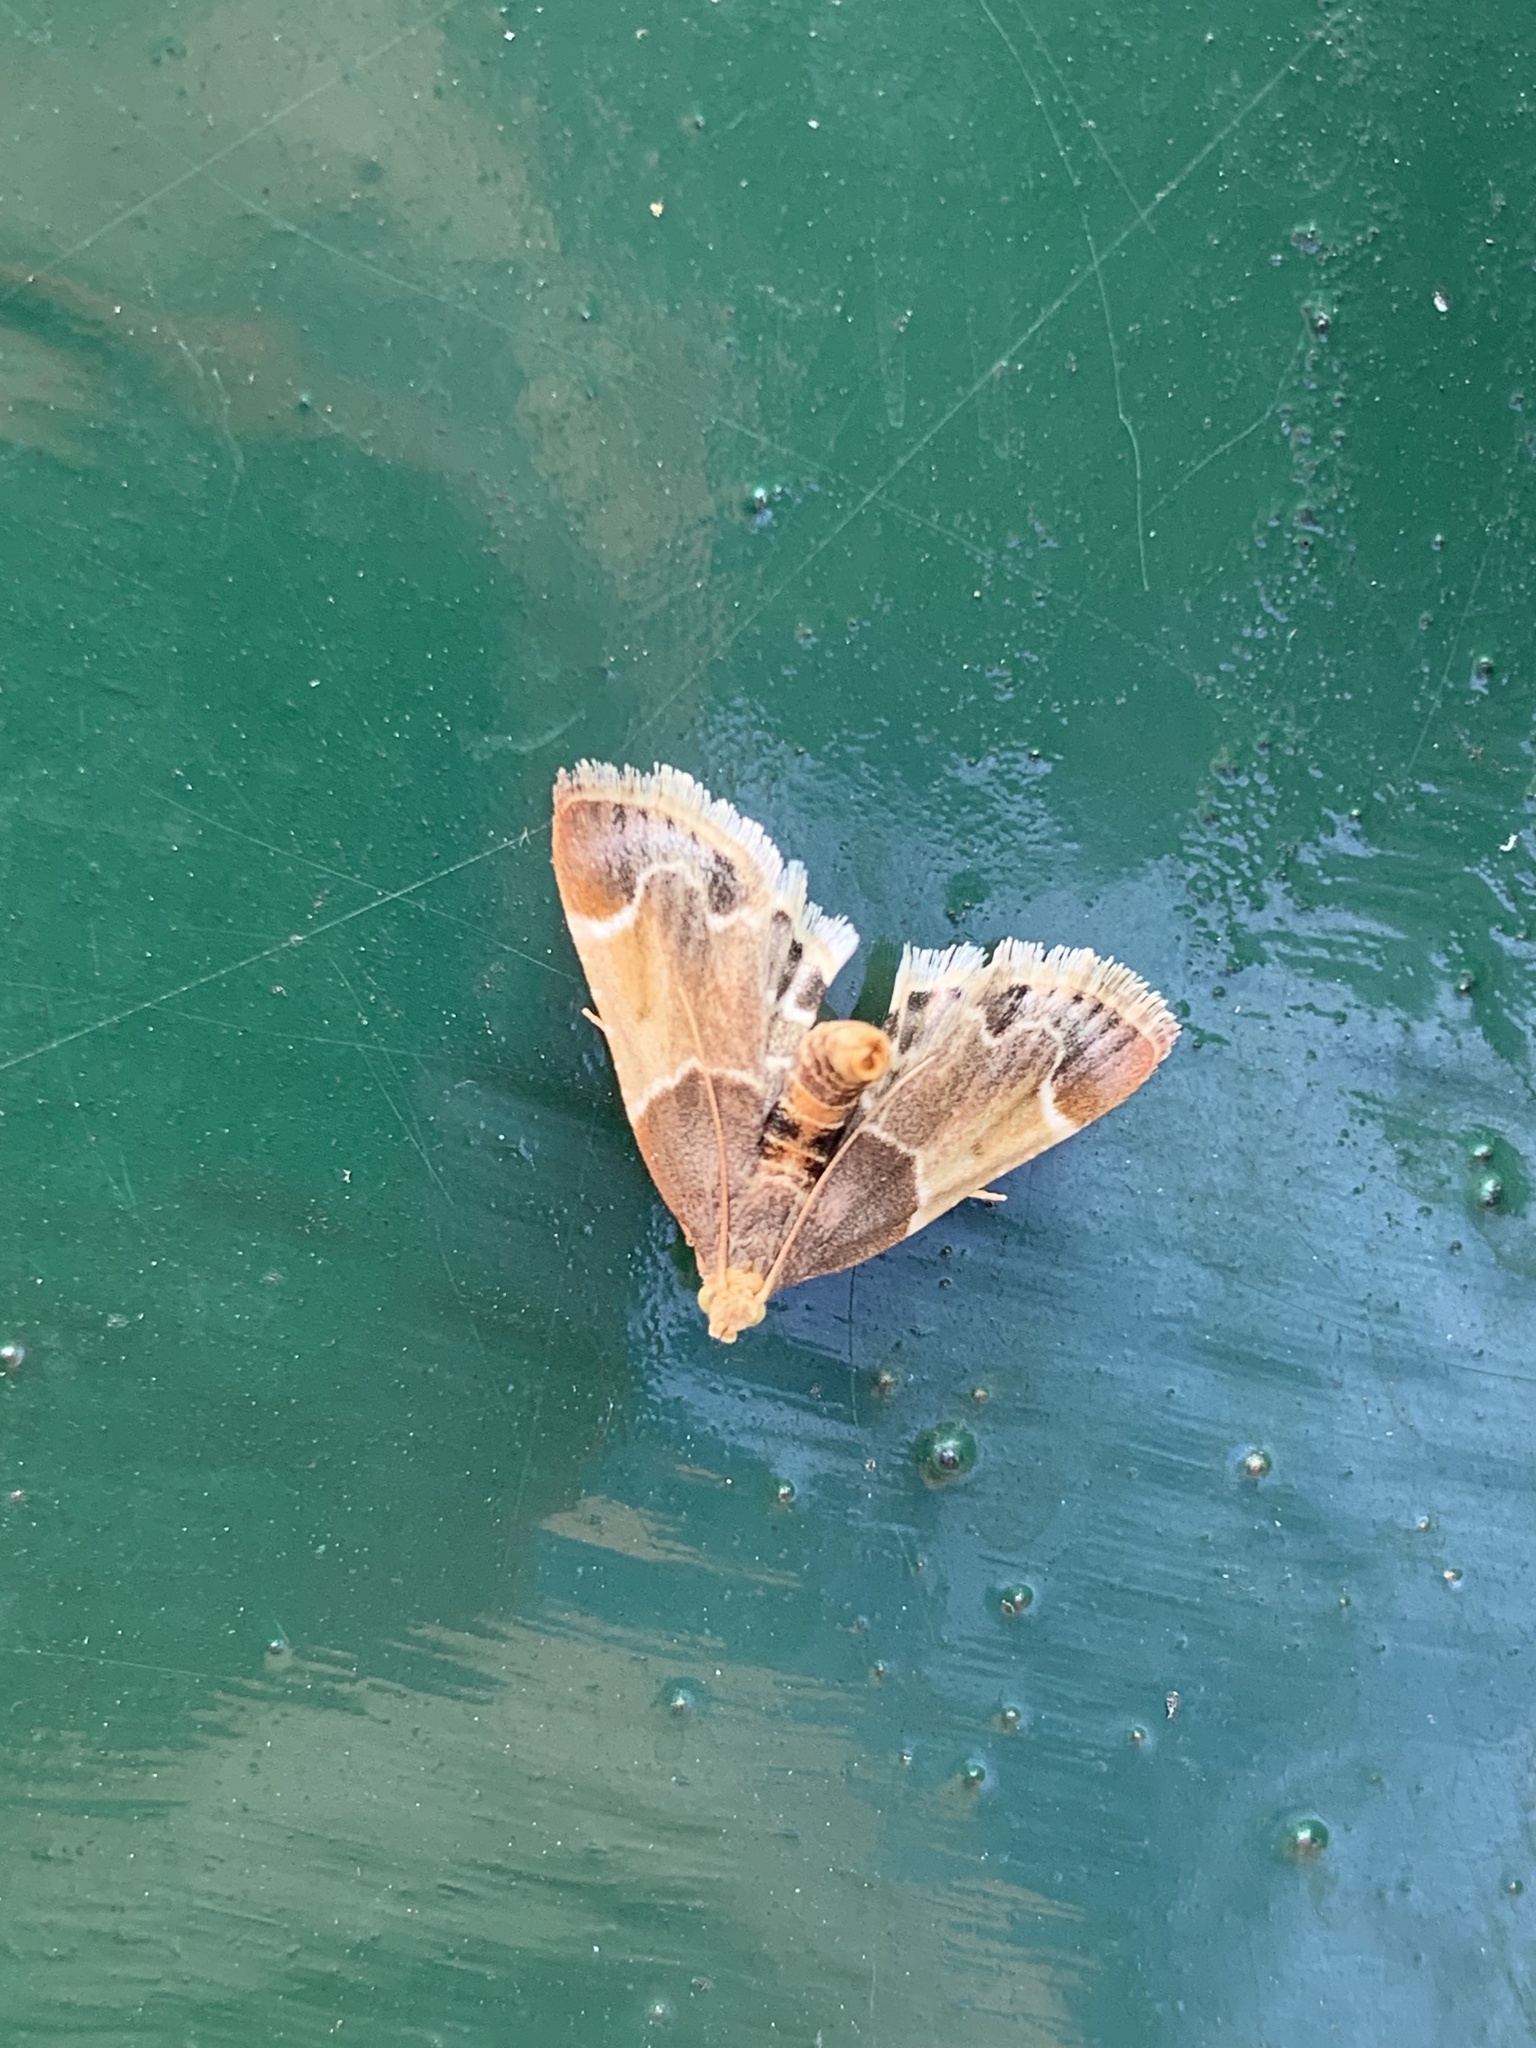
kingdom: Animalia
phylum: Arthropoda
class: Insecta
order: Lepidoptera
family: Pyralidae
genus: Pyralis
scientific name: Pyralis farinalis
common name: Meal moth
